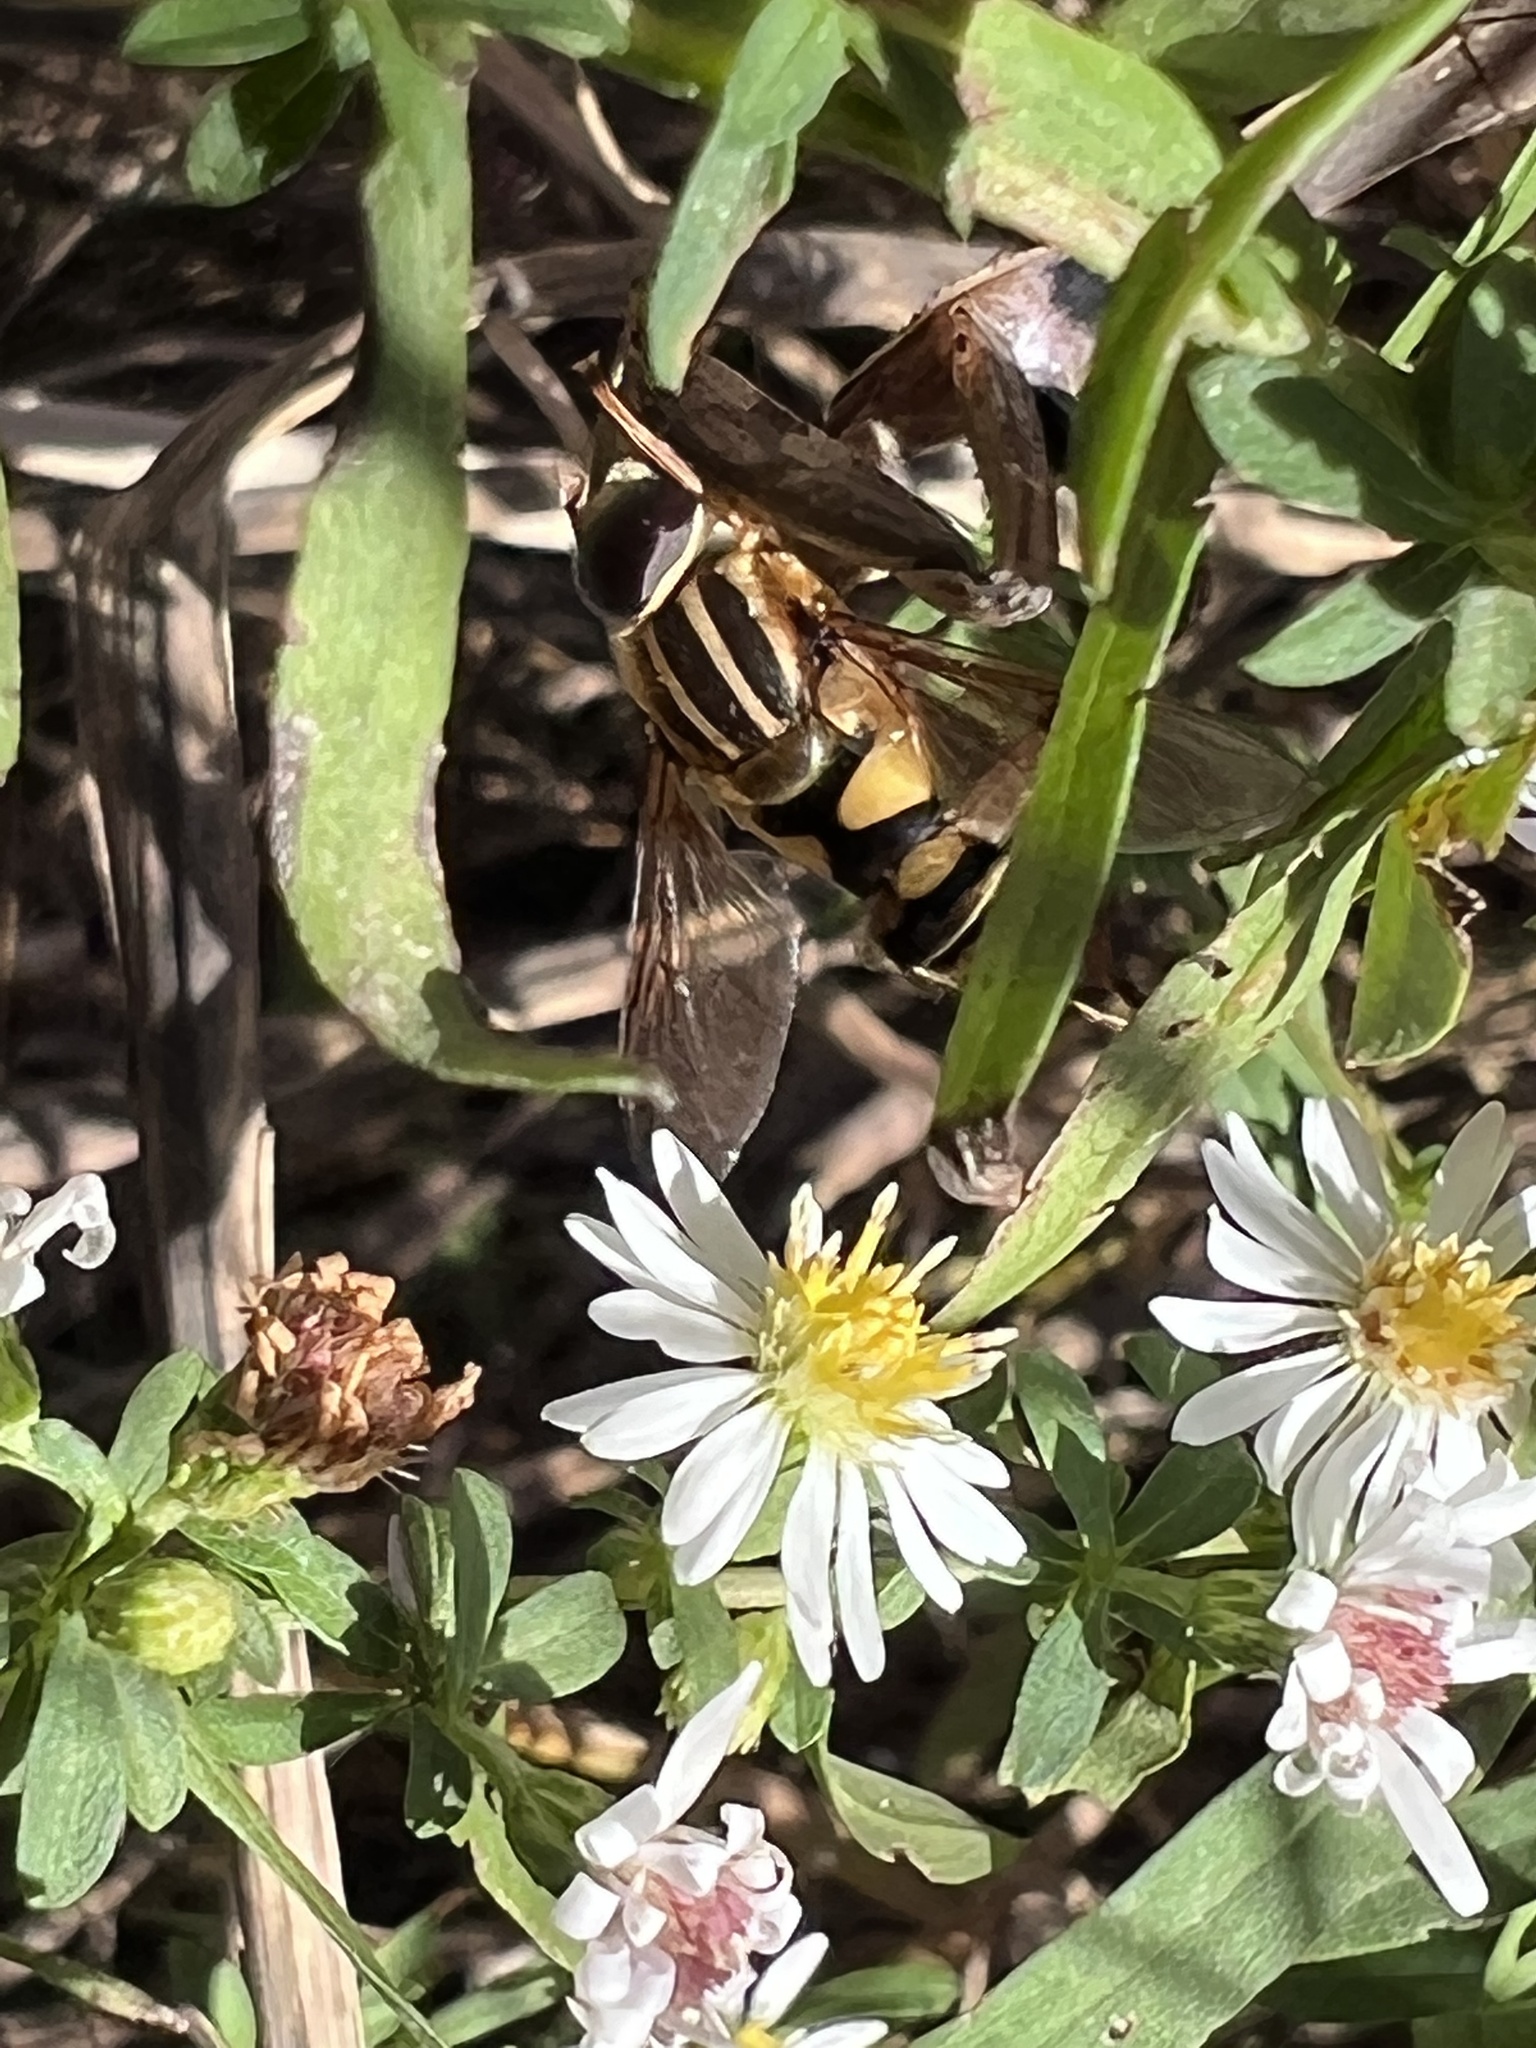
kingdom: Animalia
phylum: Arthropoda
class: Insecta
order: Diptera
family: Syrphidae
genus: Helophilus
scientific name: Helophilus fasciatus
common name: Narrow-headed marsh fly
